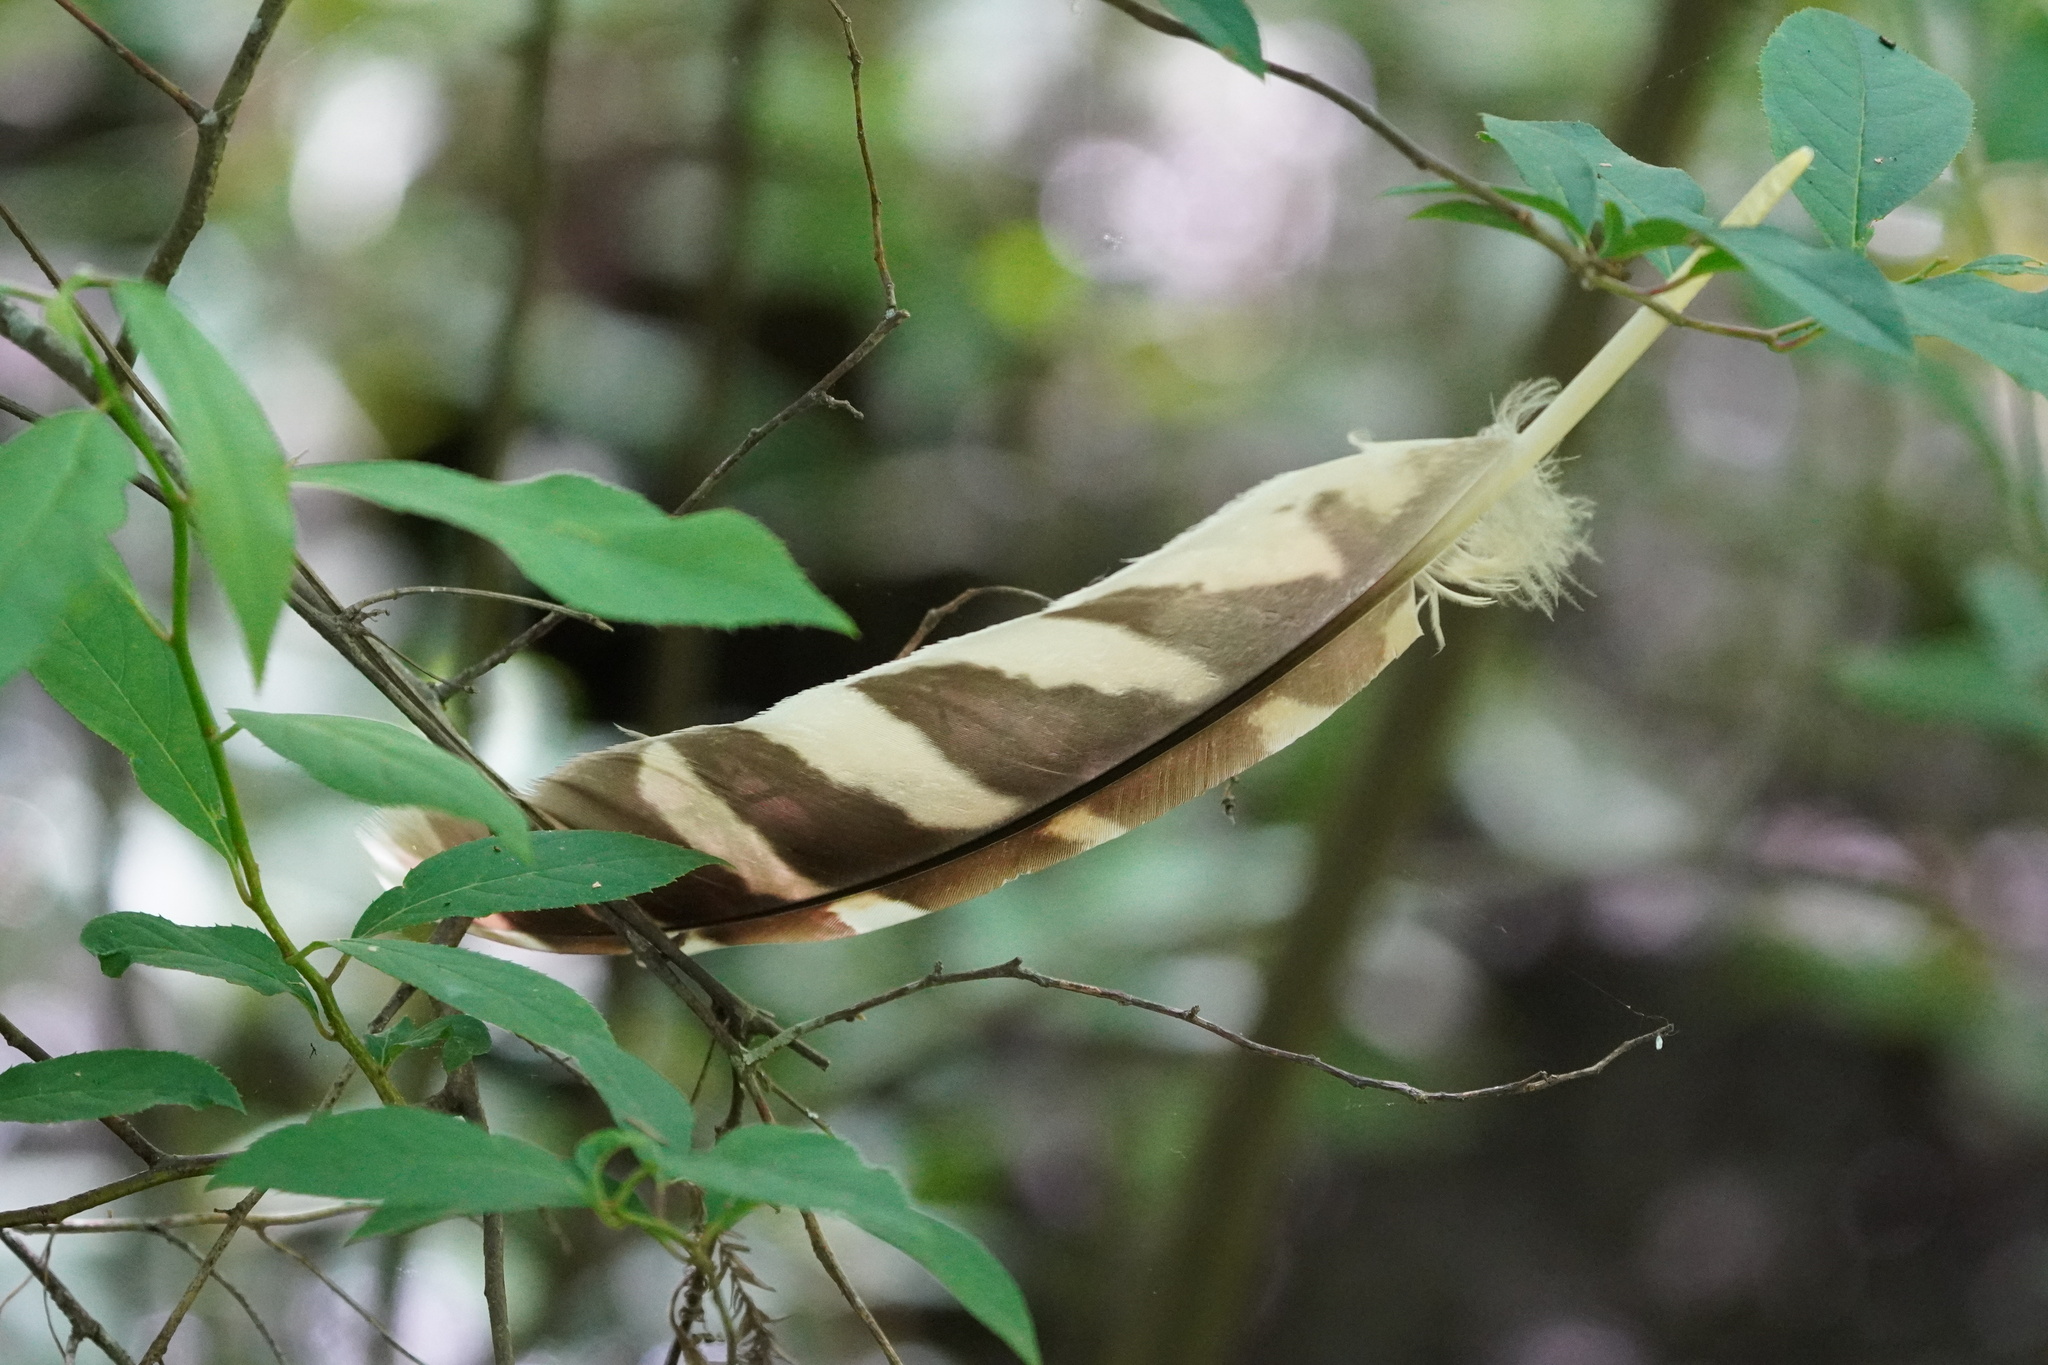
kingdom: Animalia
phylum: Chordata
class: Aves
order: Strigiformes
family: Strigidae
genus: Strix
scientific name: Strix varia
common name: Barred owl
